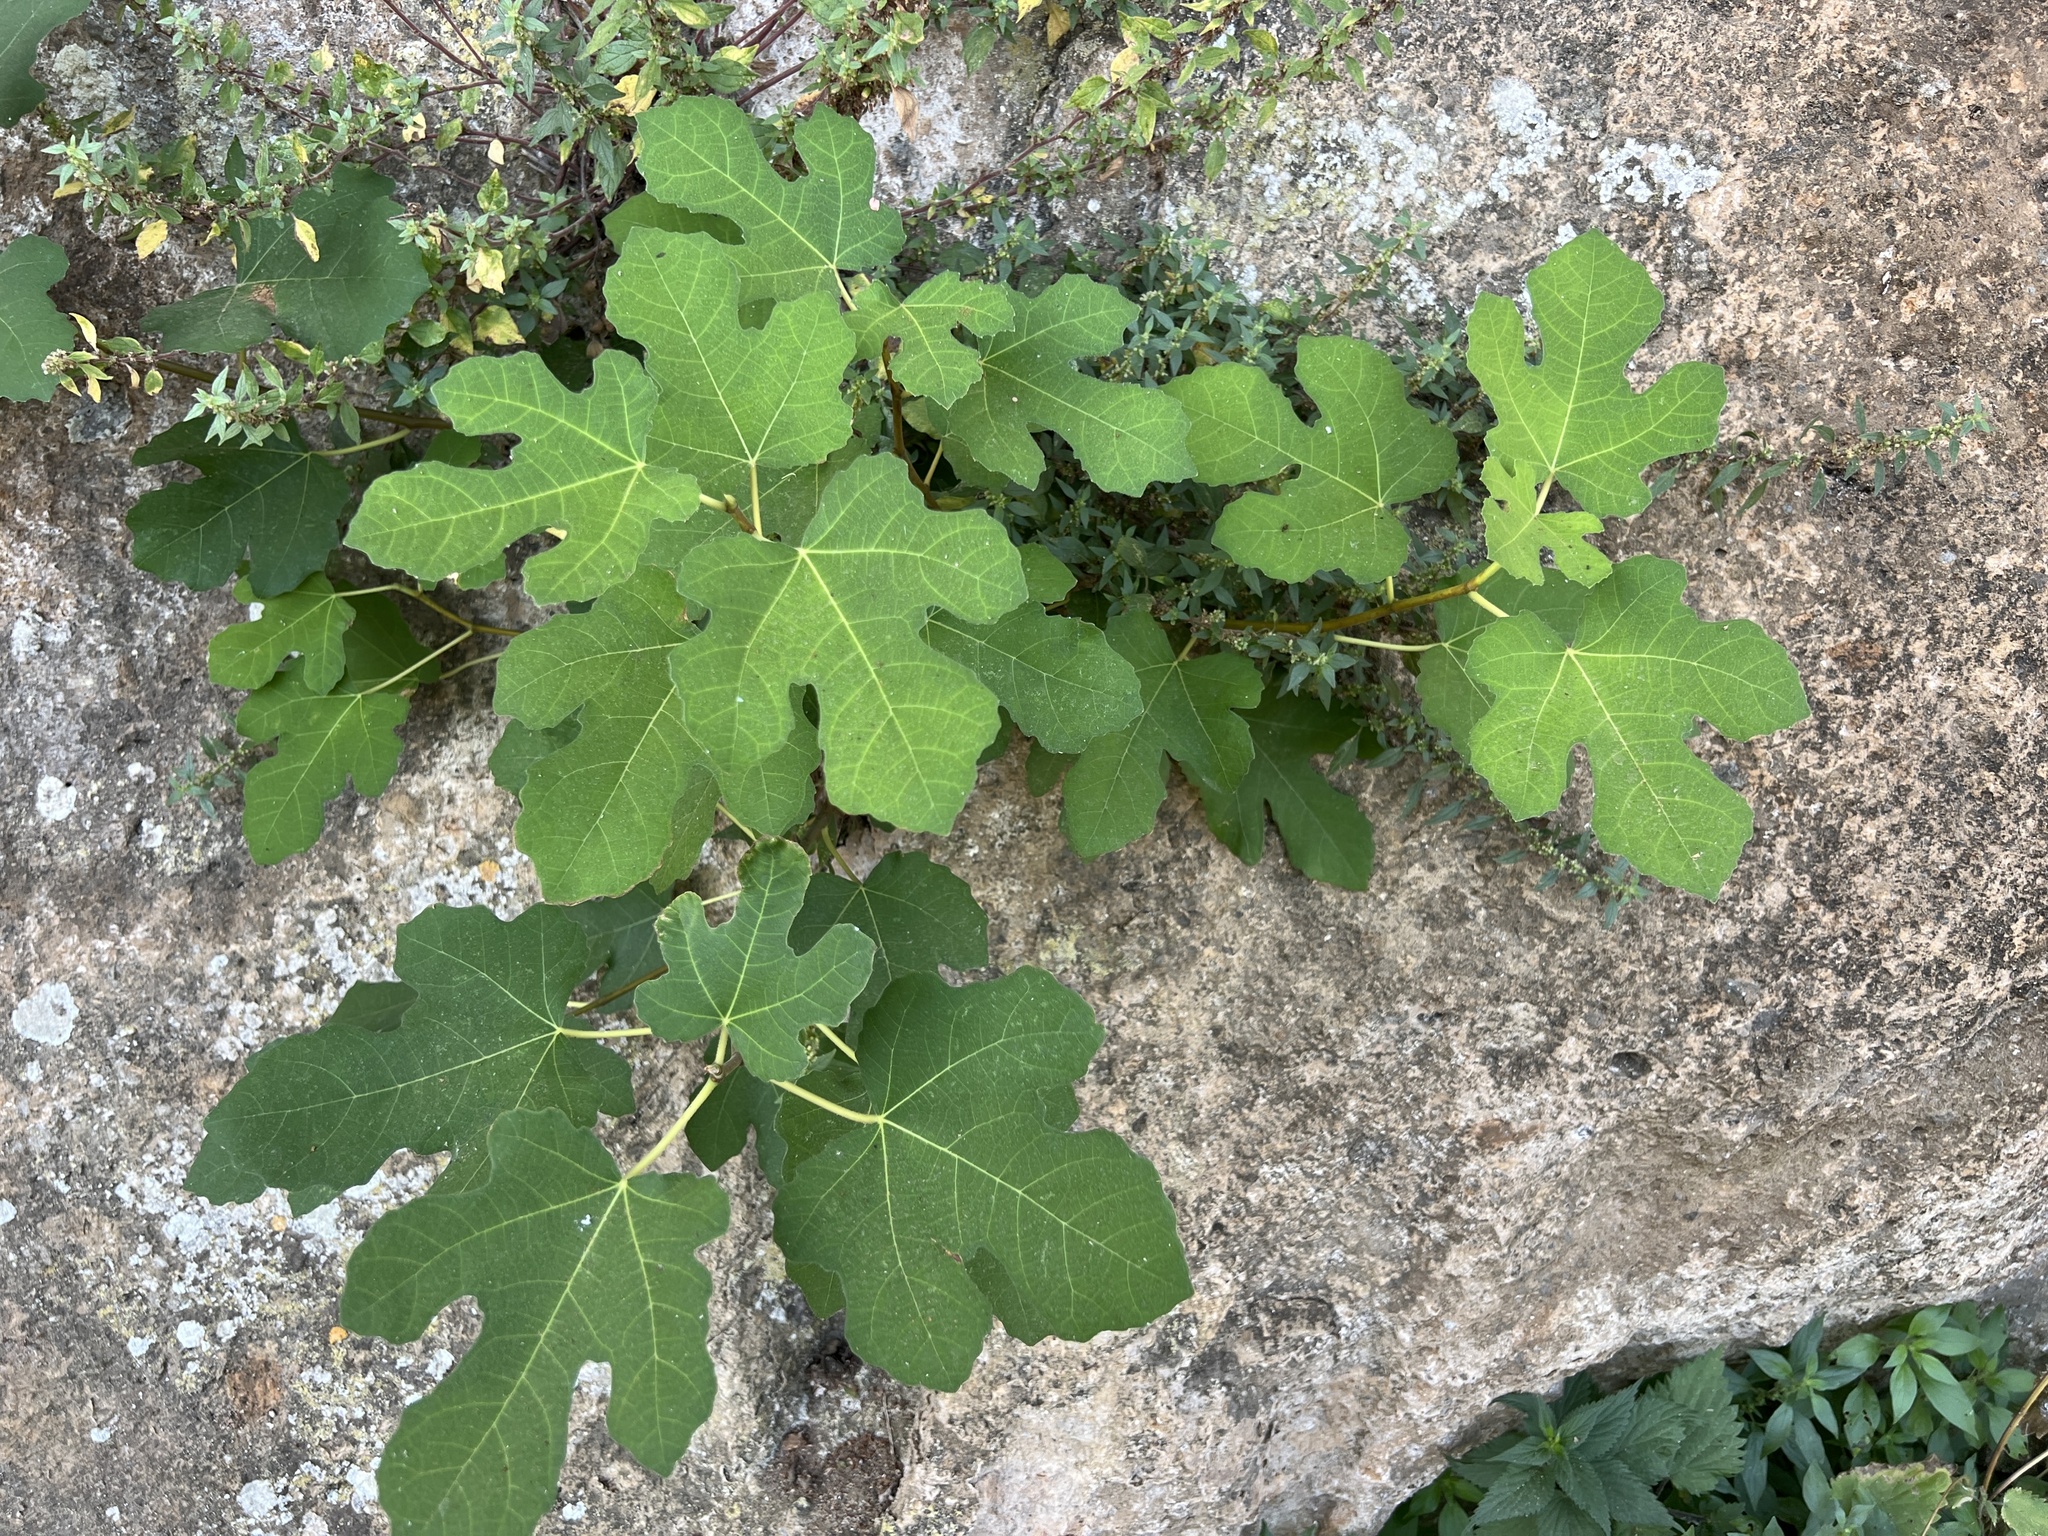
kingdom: Plantae
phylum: Tracheophyta
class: Magnoliopsida
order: Rosales
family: Moraceae
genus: Ficus
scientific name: Ficus carica
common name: Fig
